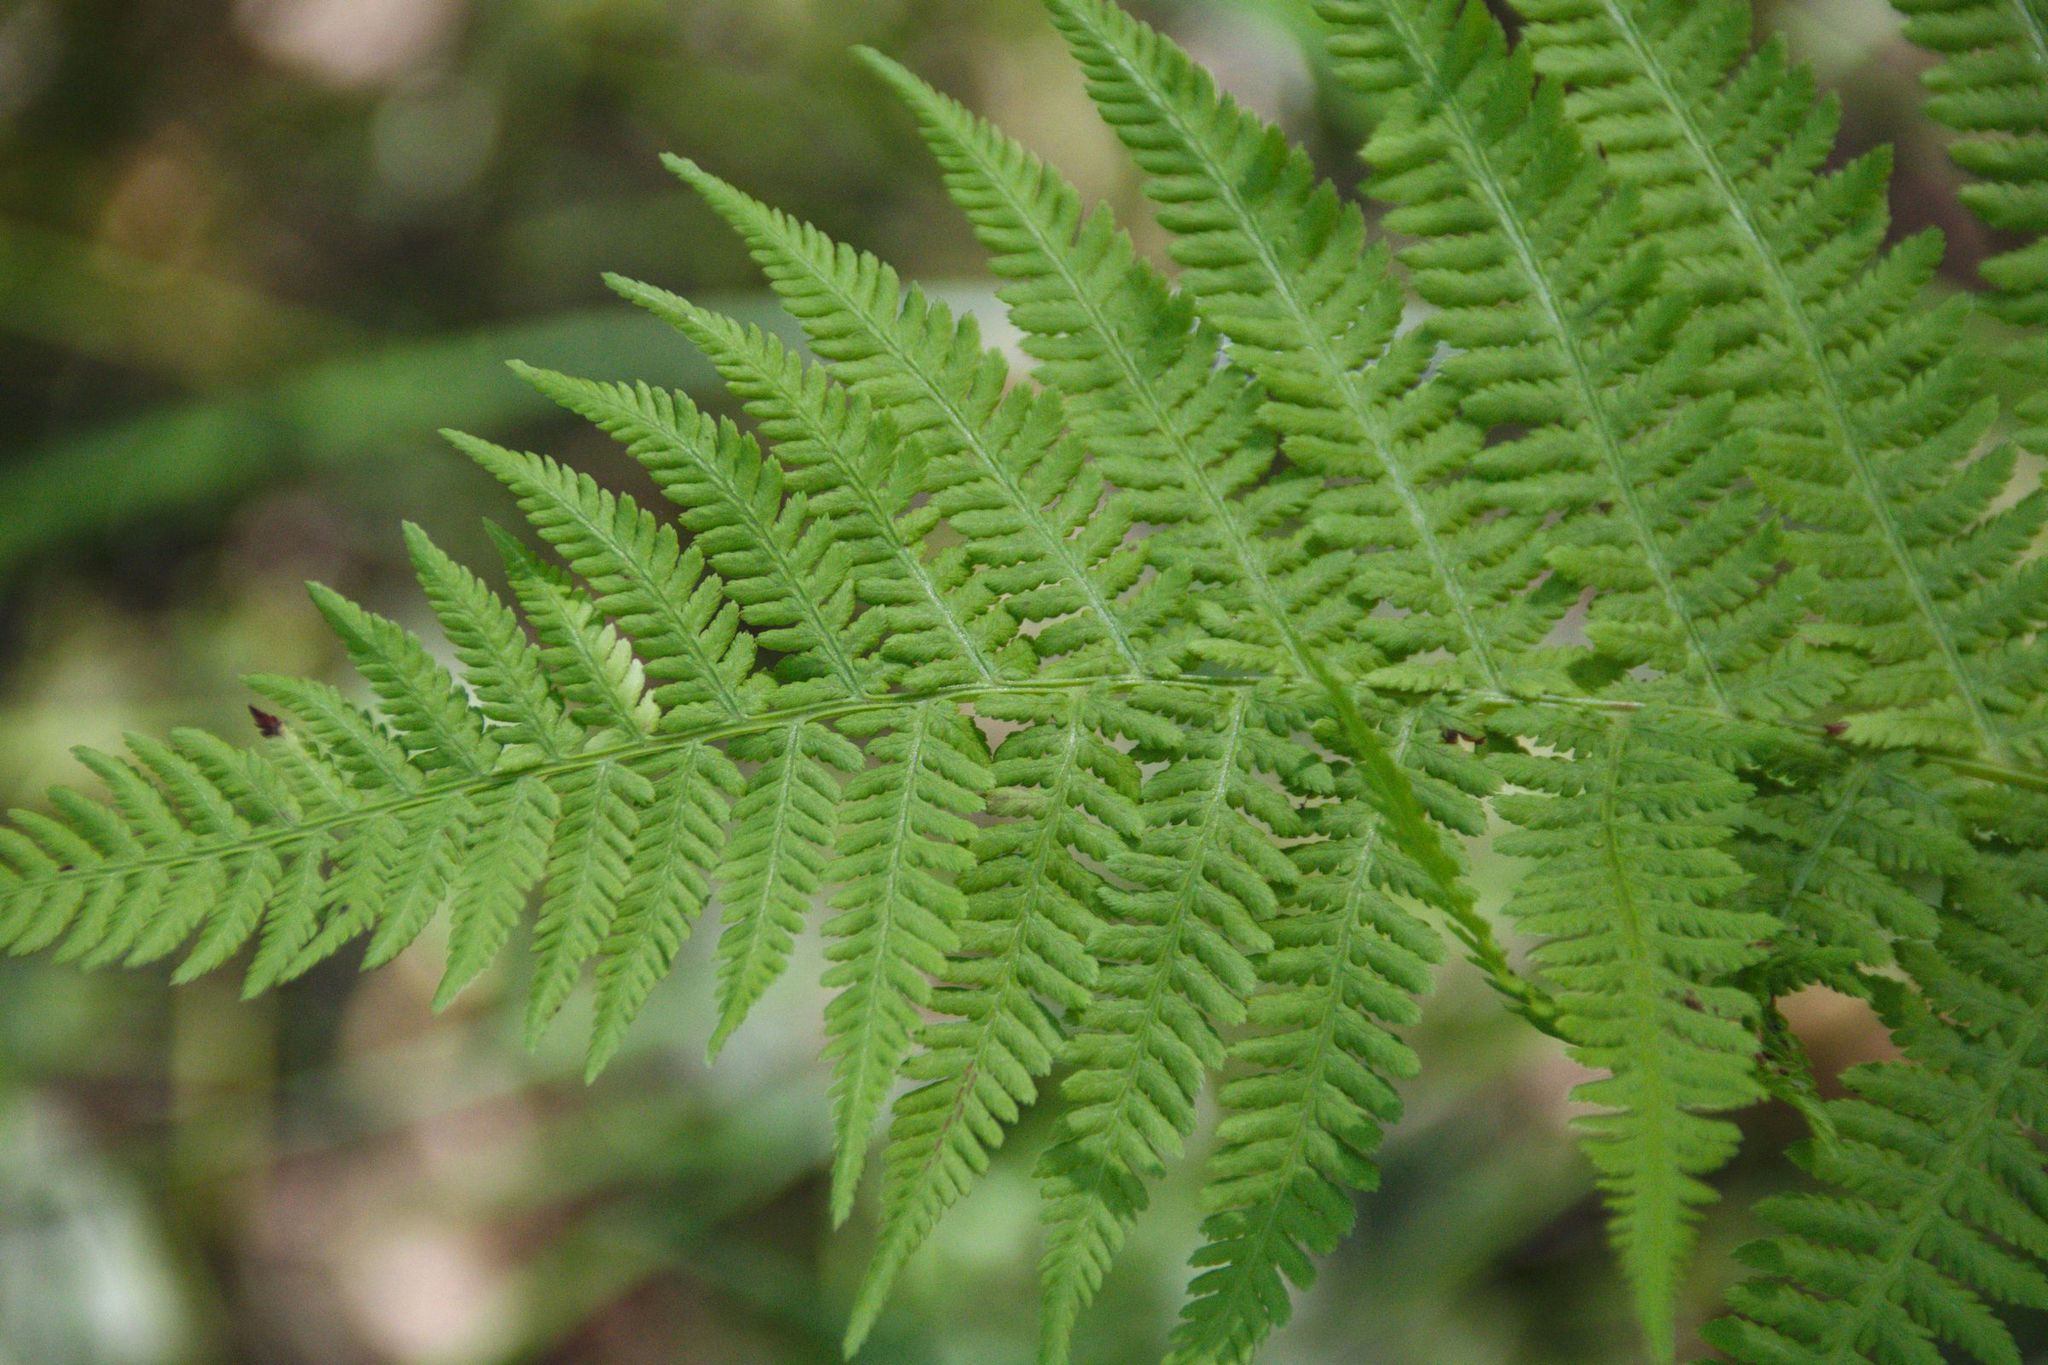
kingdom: Plantae
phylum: Tracheophyta
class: Polypodiopsida
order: Polypodiales
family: Athyriaceae
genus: Athyrium
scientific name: Athyrium filix-femina
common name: Lady fern
